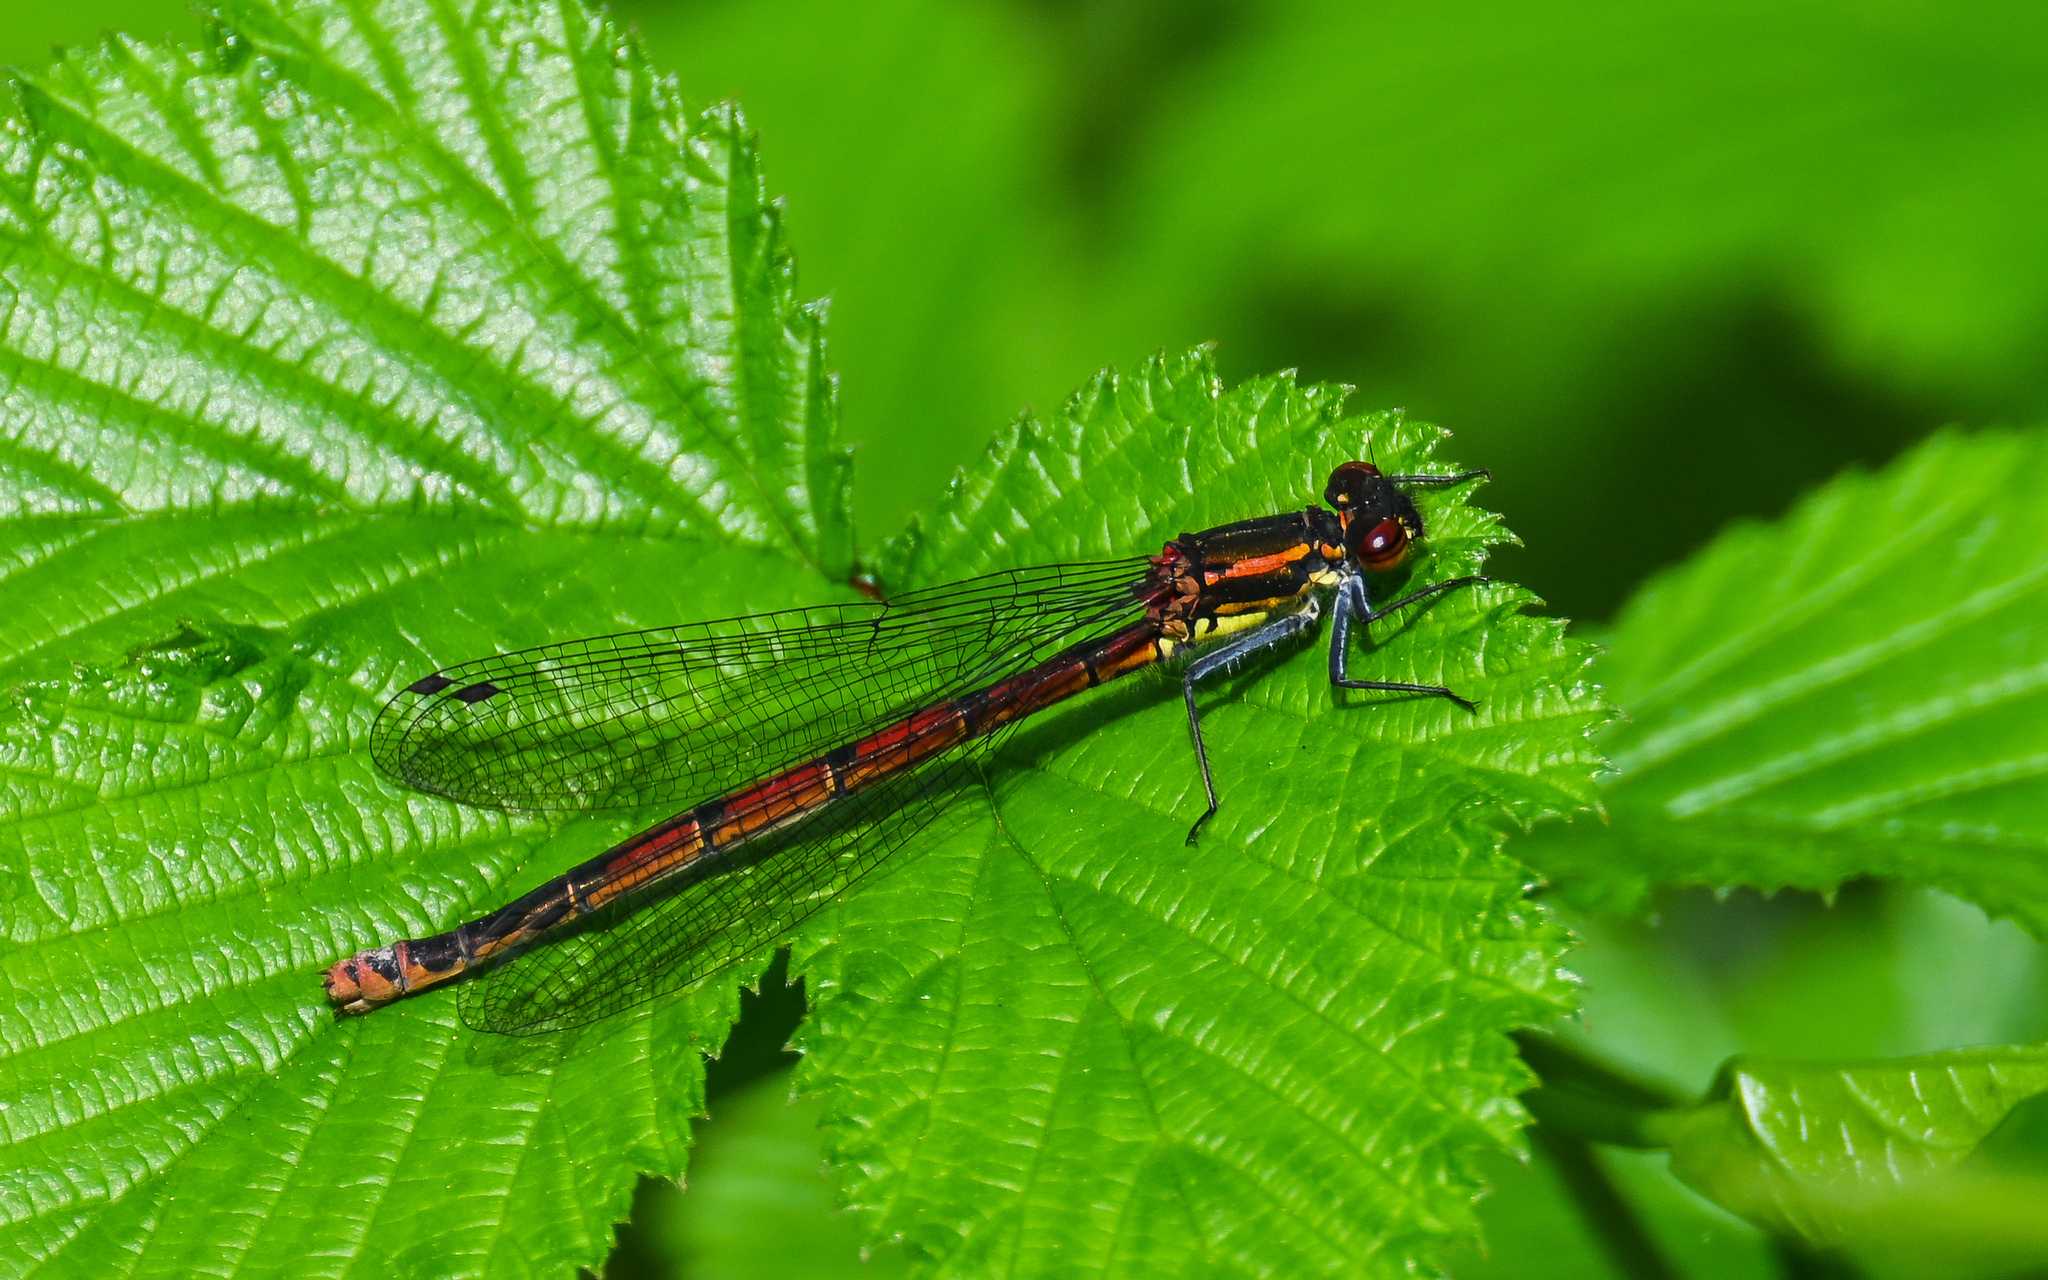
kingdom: Animalia
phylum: Arthropoda
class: Insecta
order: Odonata
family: Coenagrionidae
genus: Pyrrhosoma
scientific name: Pyrrhosoma nymphula
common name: Large red damsel
